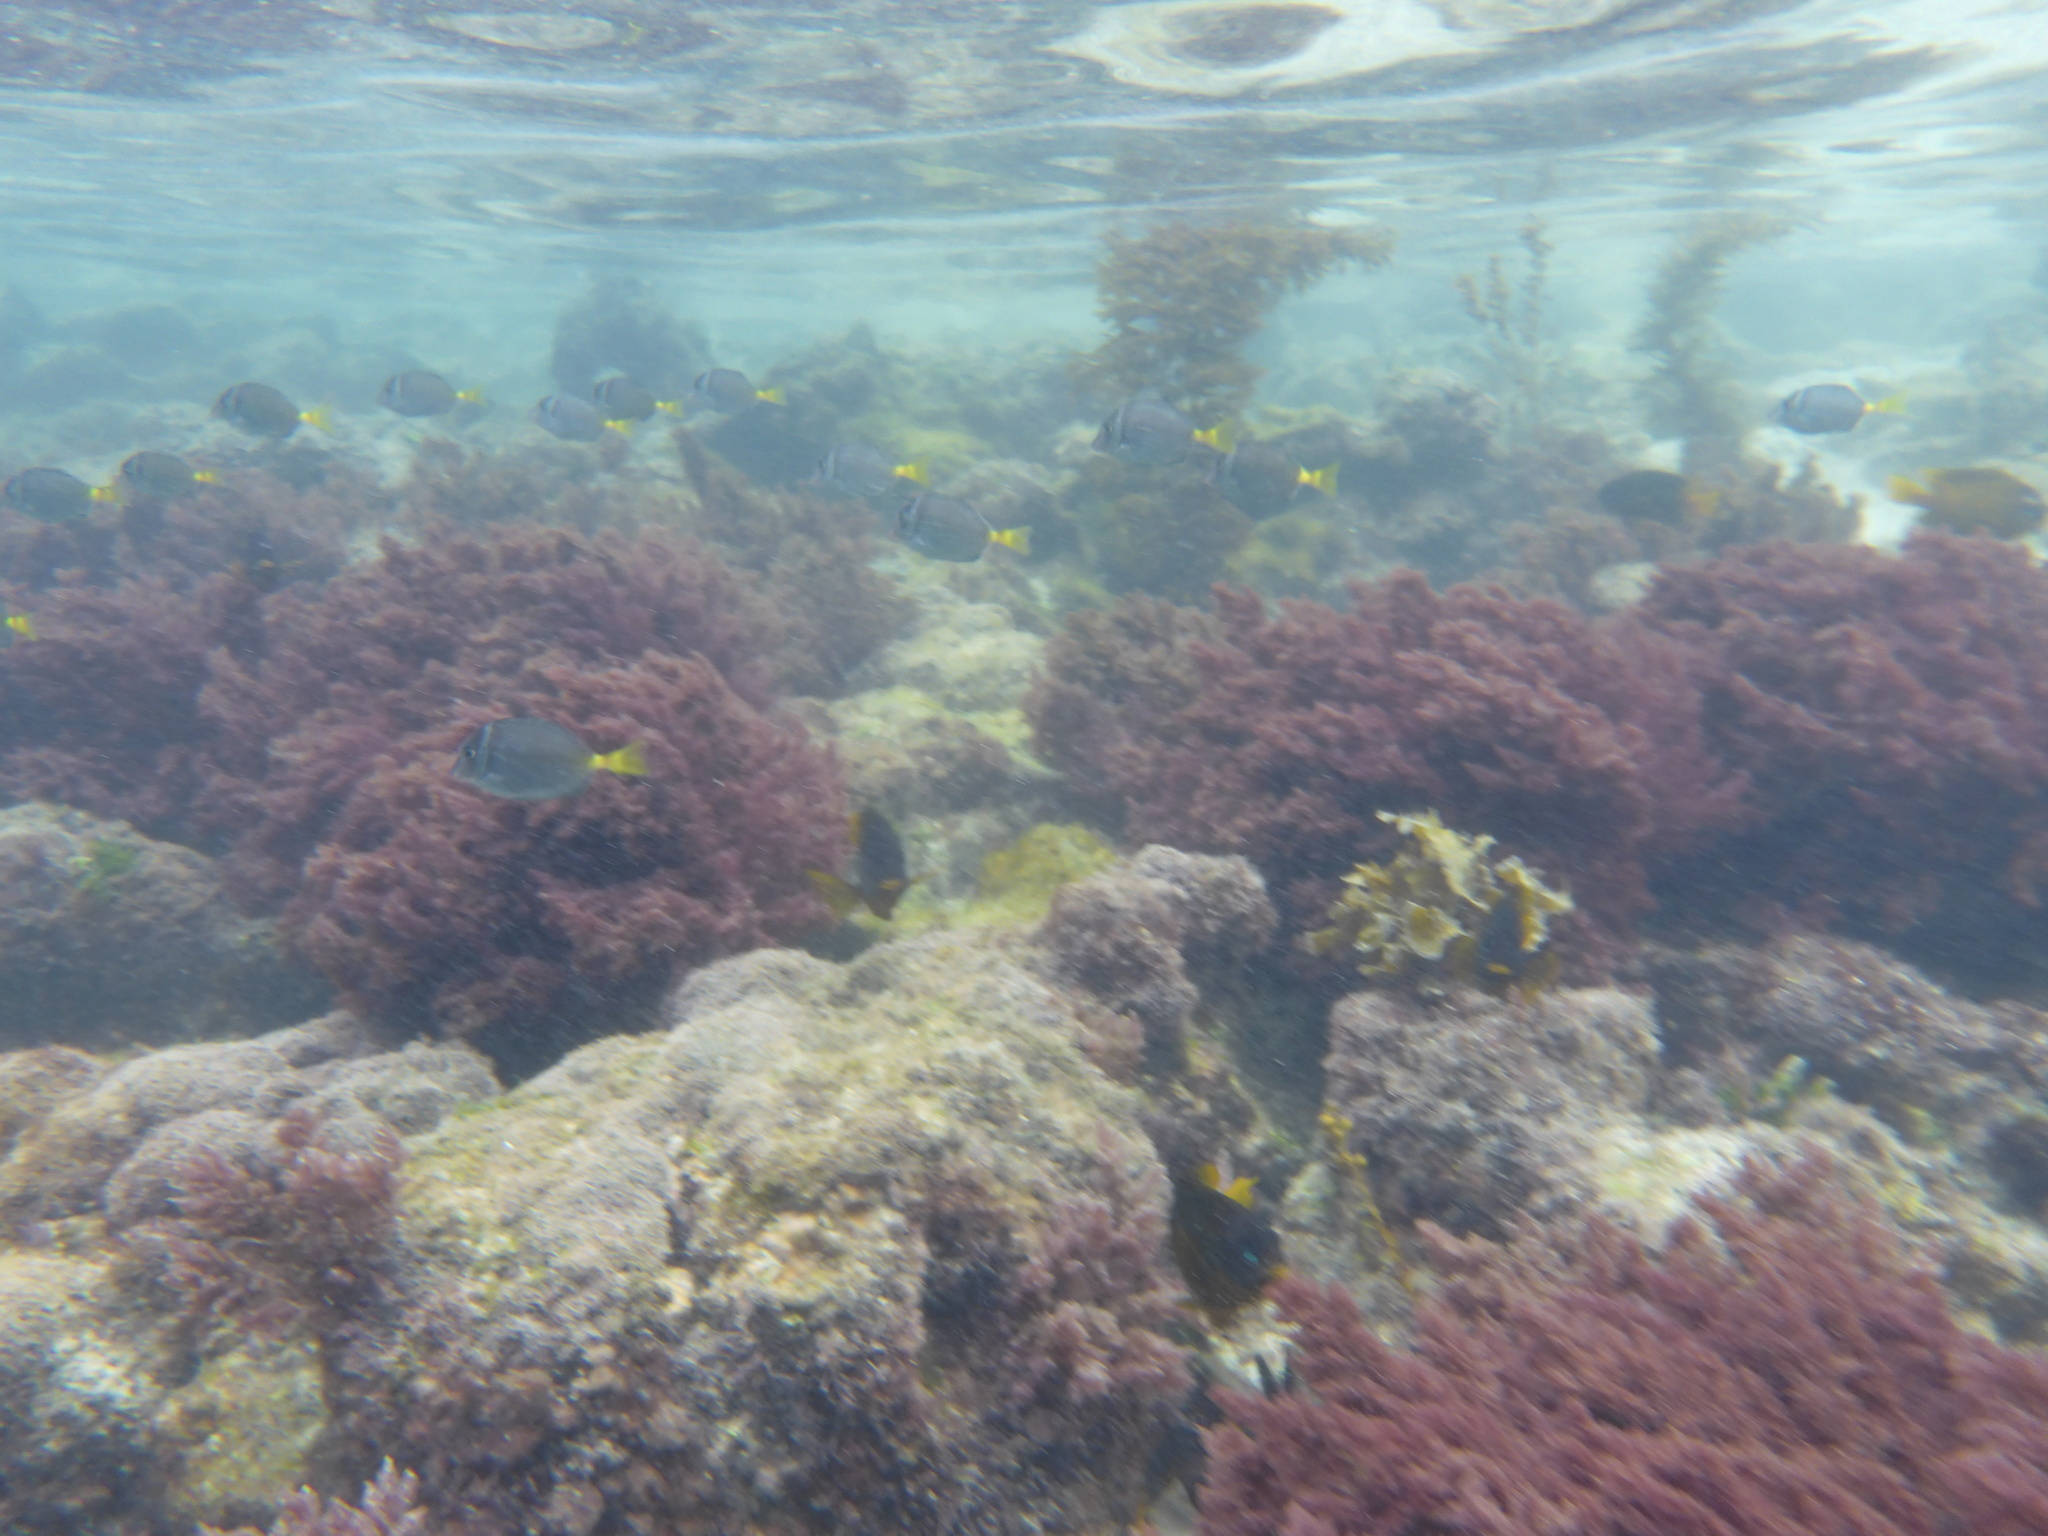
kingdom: Animalia
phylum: Chordata
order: Perciformes
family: Pomacentridae
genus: Stegastes
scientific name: Stegastes arcifrons
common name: Galapagos gregory
